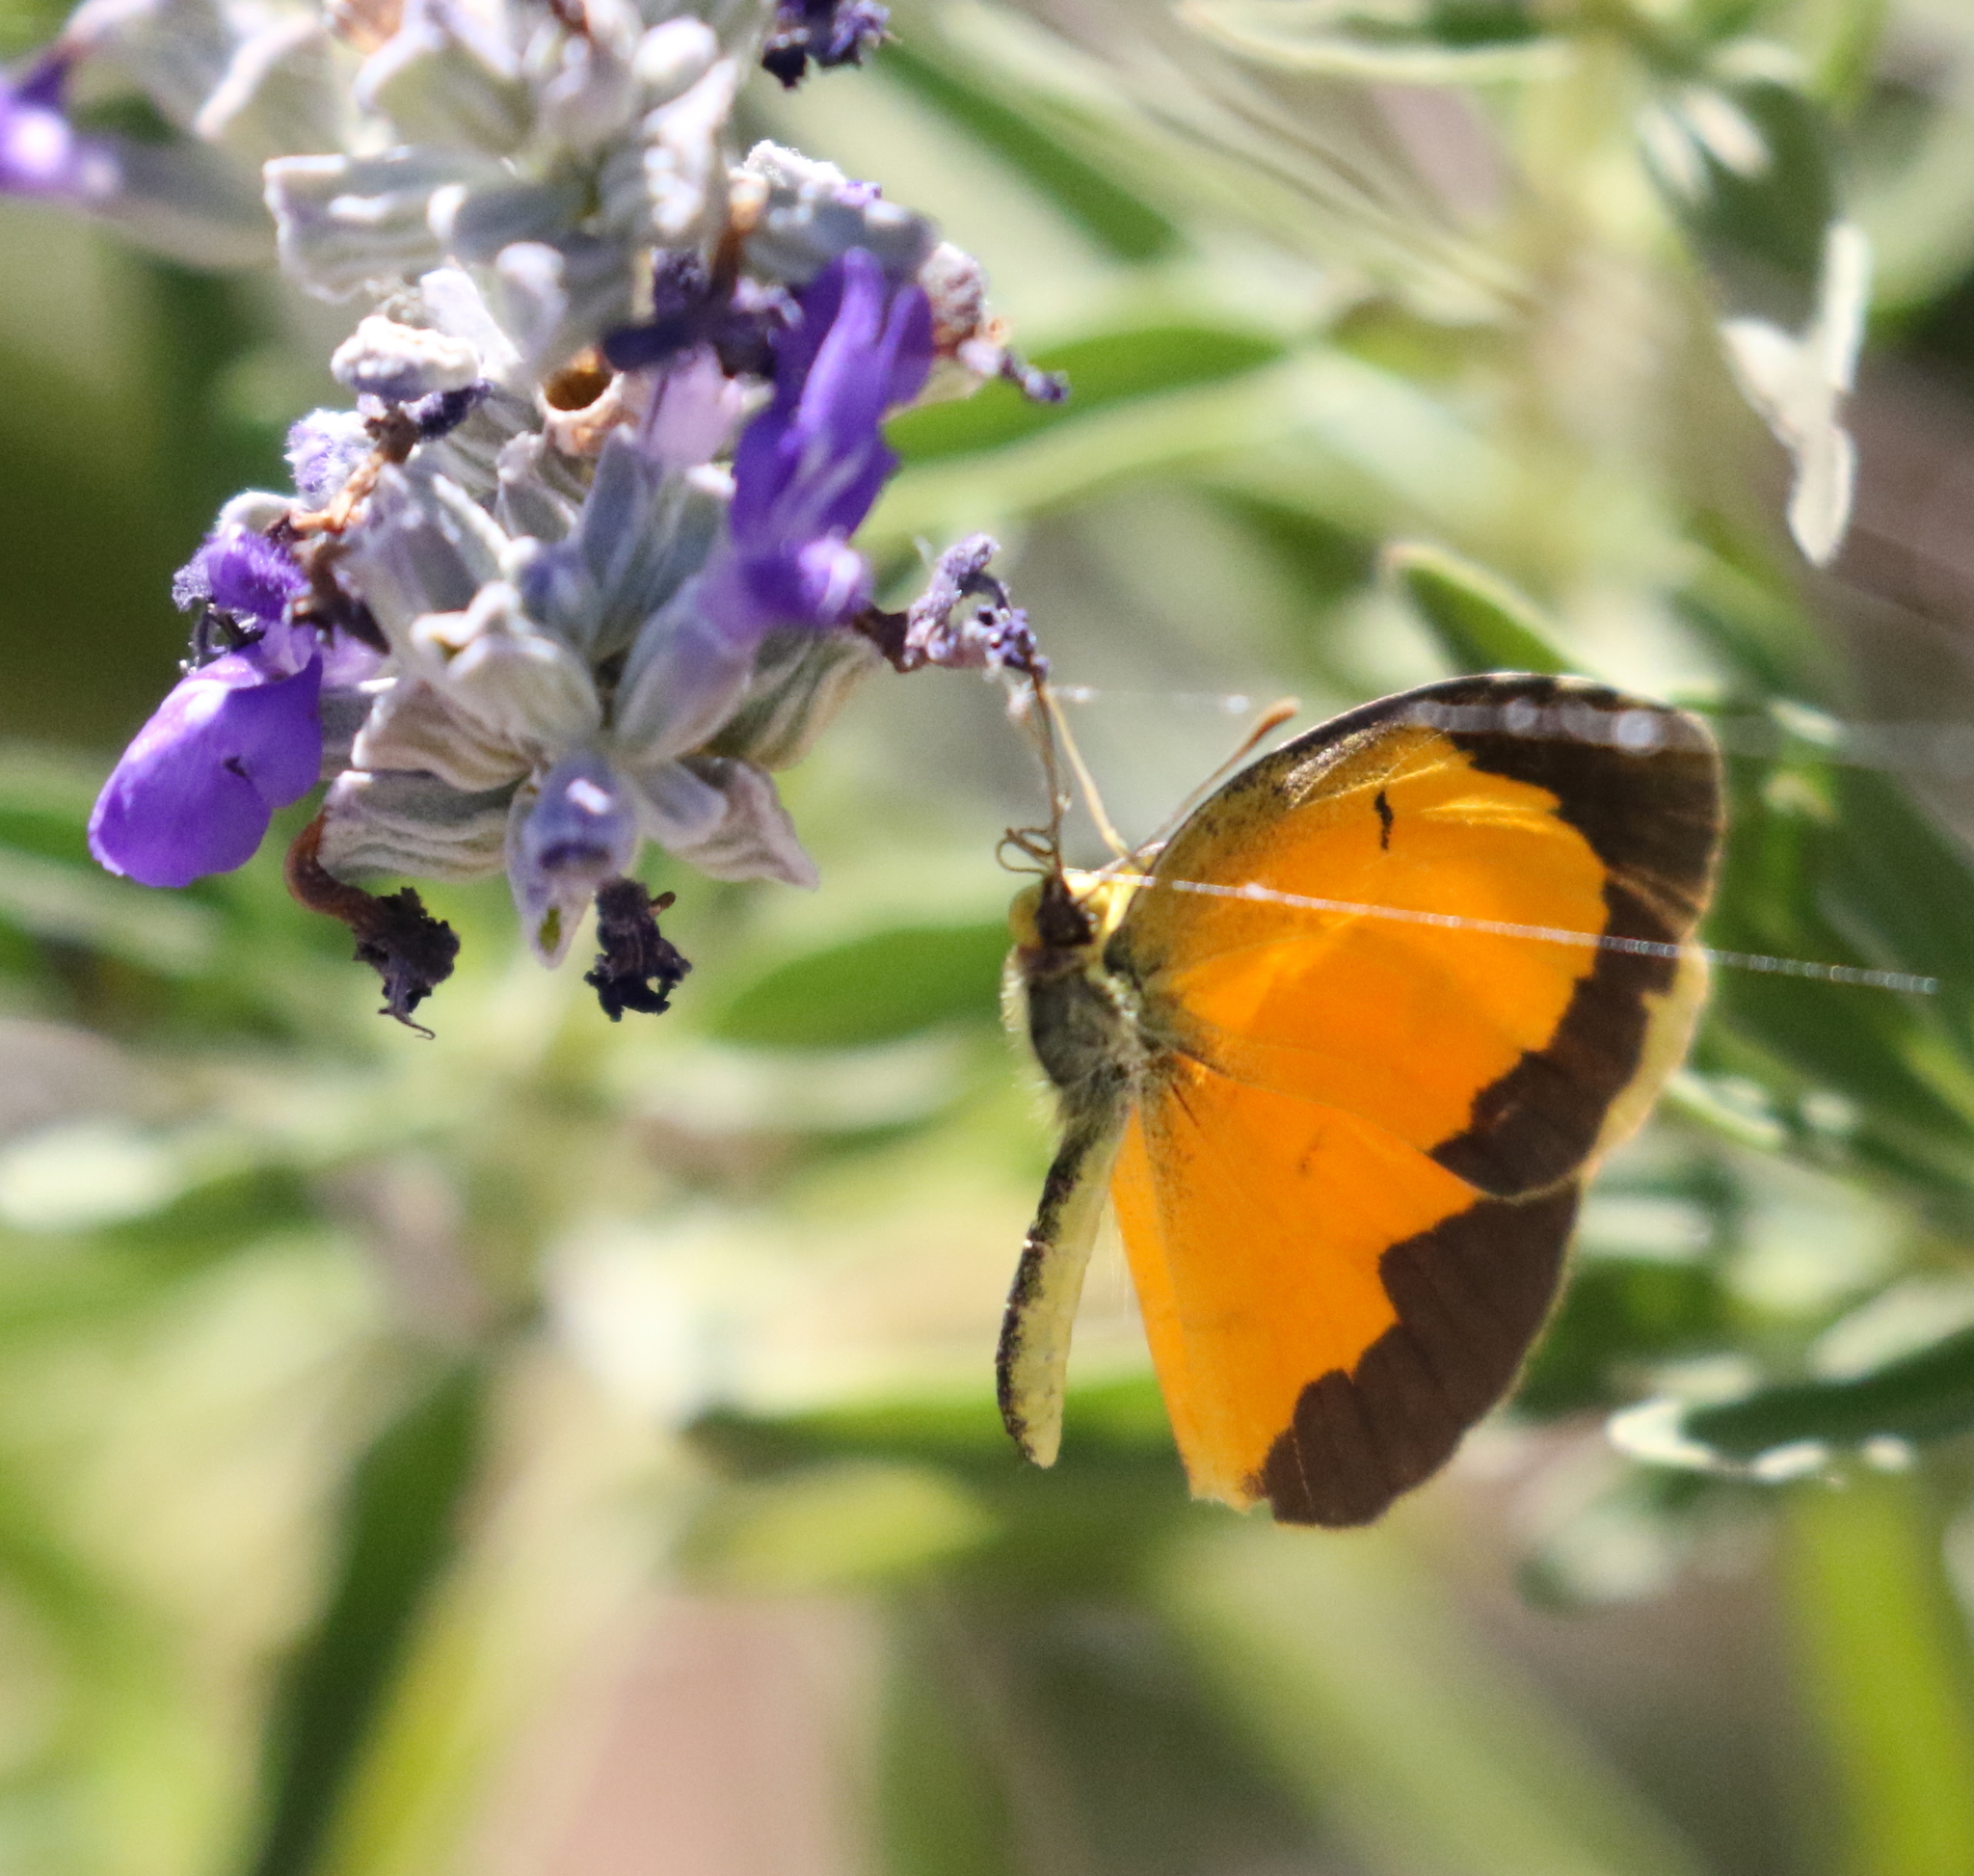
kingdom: Animalia
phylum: Arthropoda
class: Insecta
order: Lepidoptera
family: Pieridae
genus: Abaeis
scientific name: Abaeis nicippe
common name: Sleepy orange
